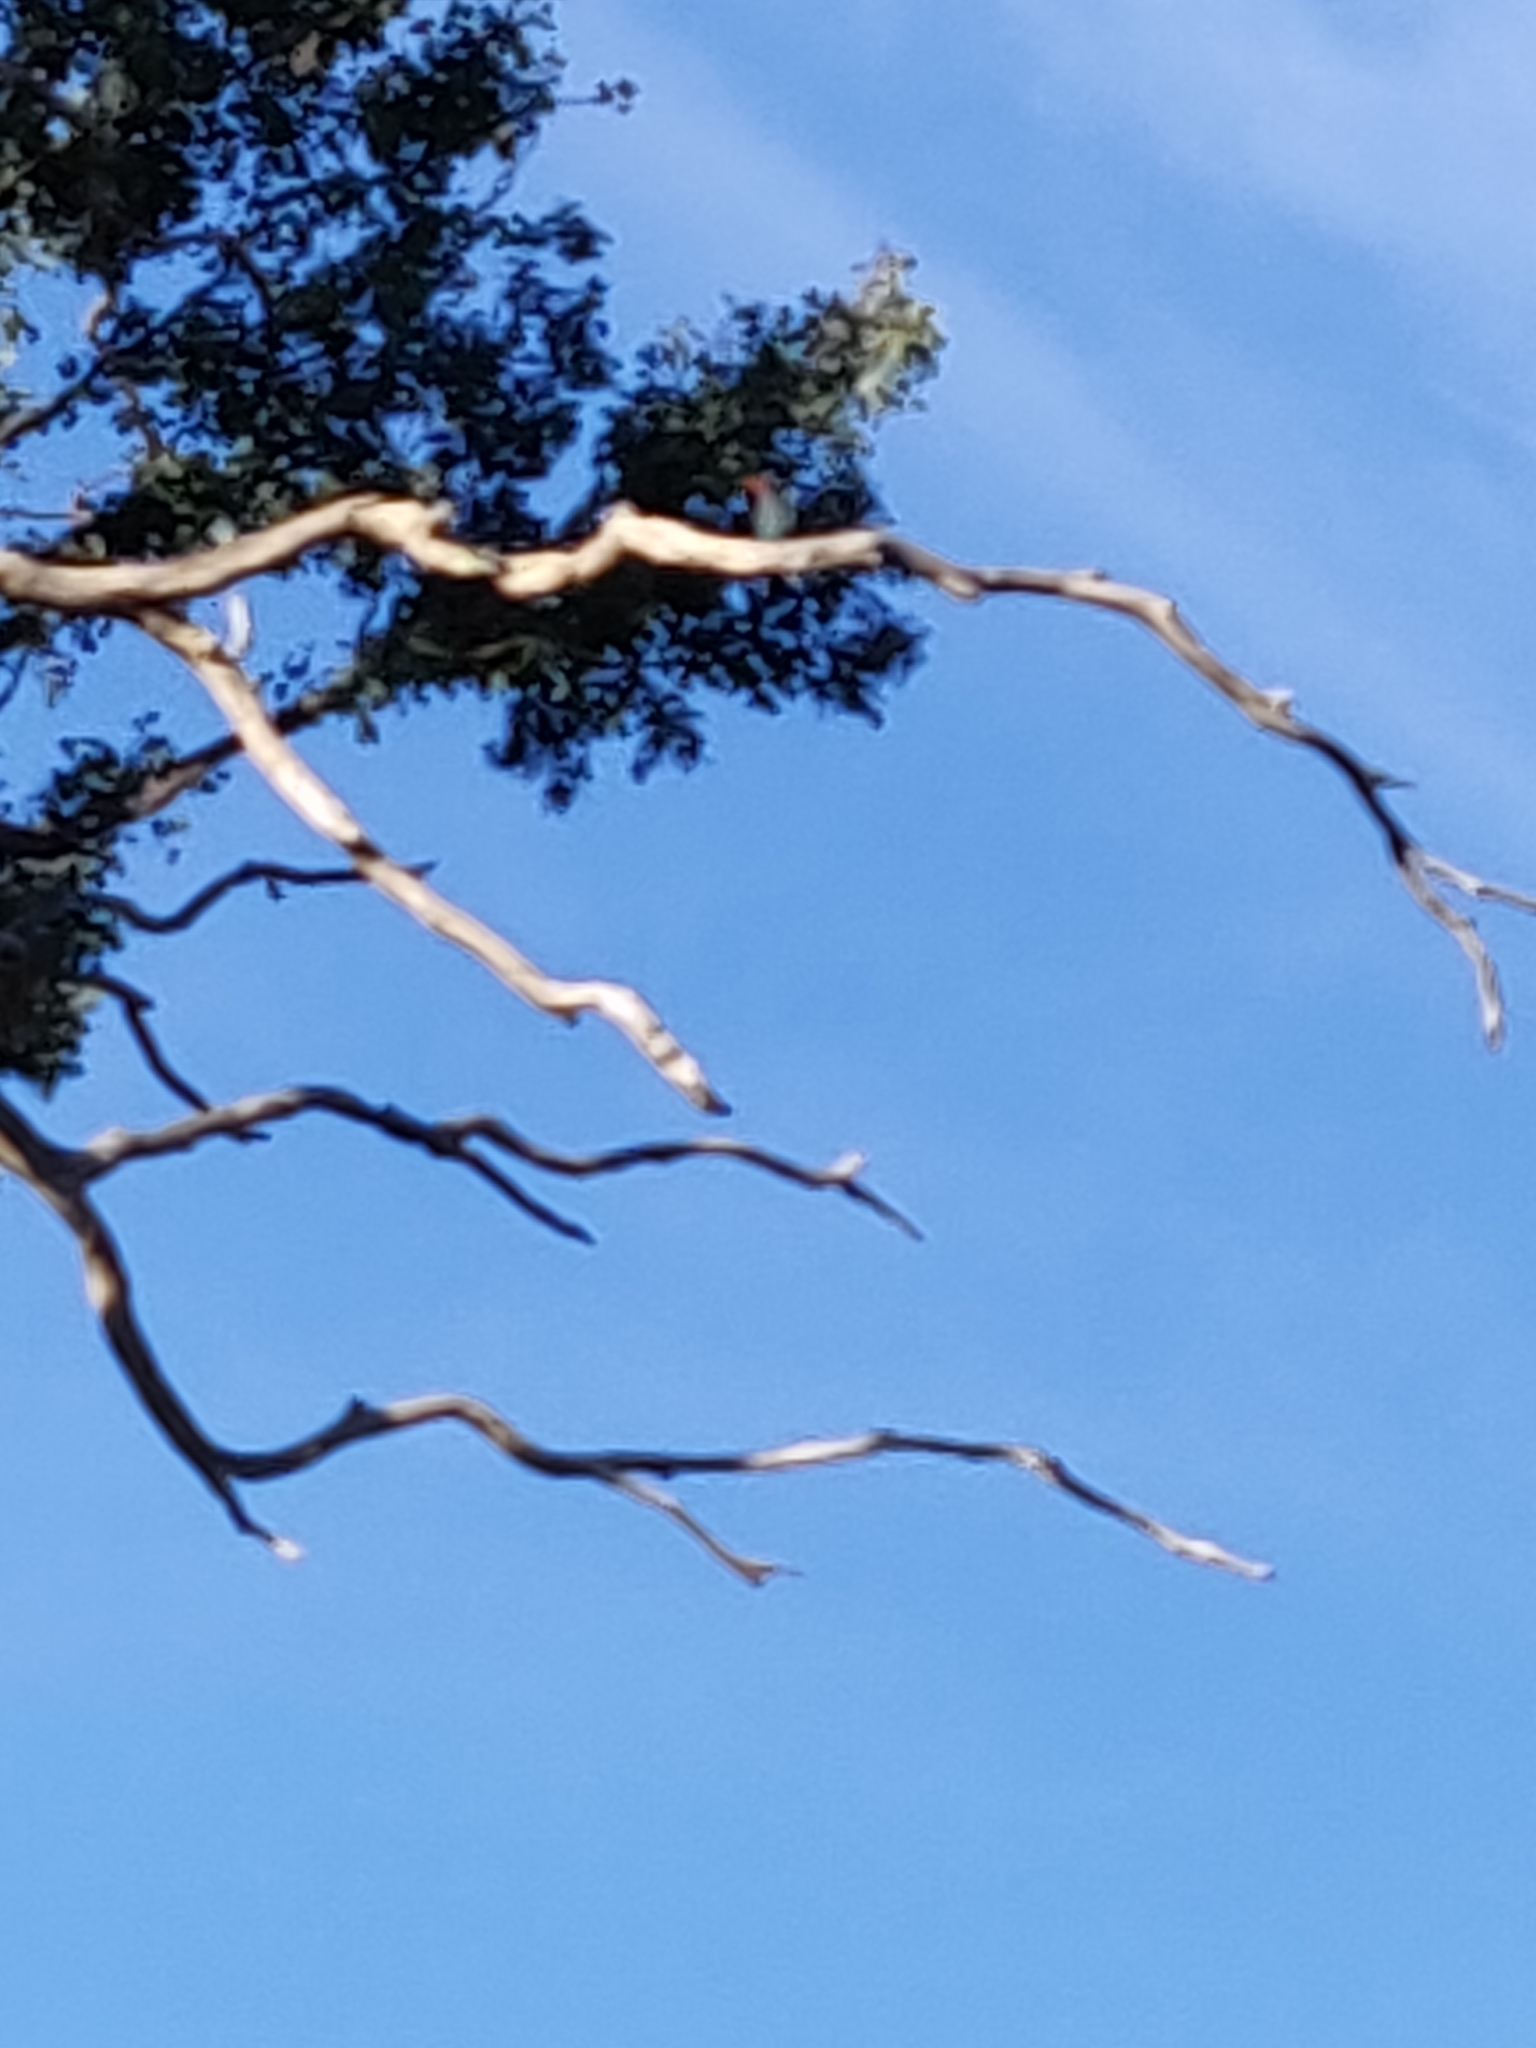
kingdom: Animalia
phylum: Chordata
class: Aves
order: Coraciiformes
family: Coraciidae
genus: Eurystomus
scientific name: Eurystomus orientalis
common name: Oriental dollarbird
